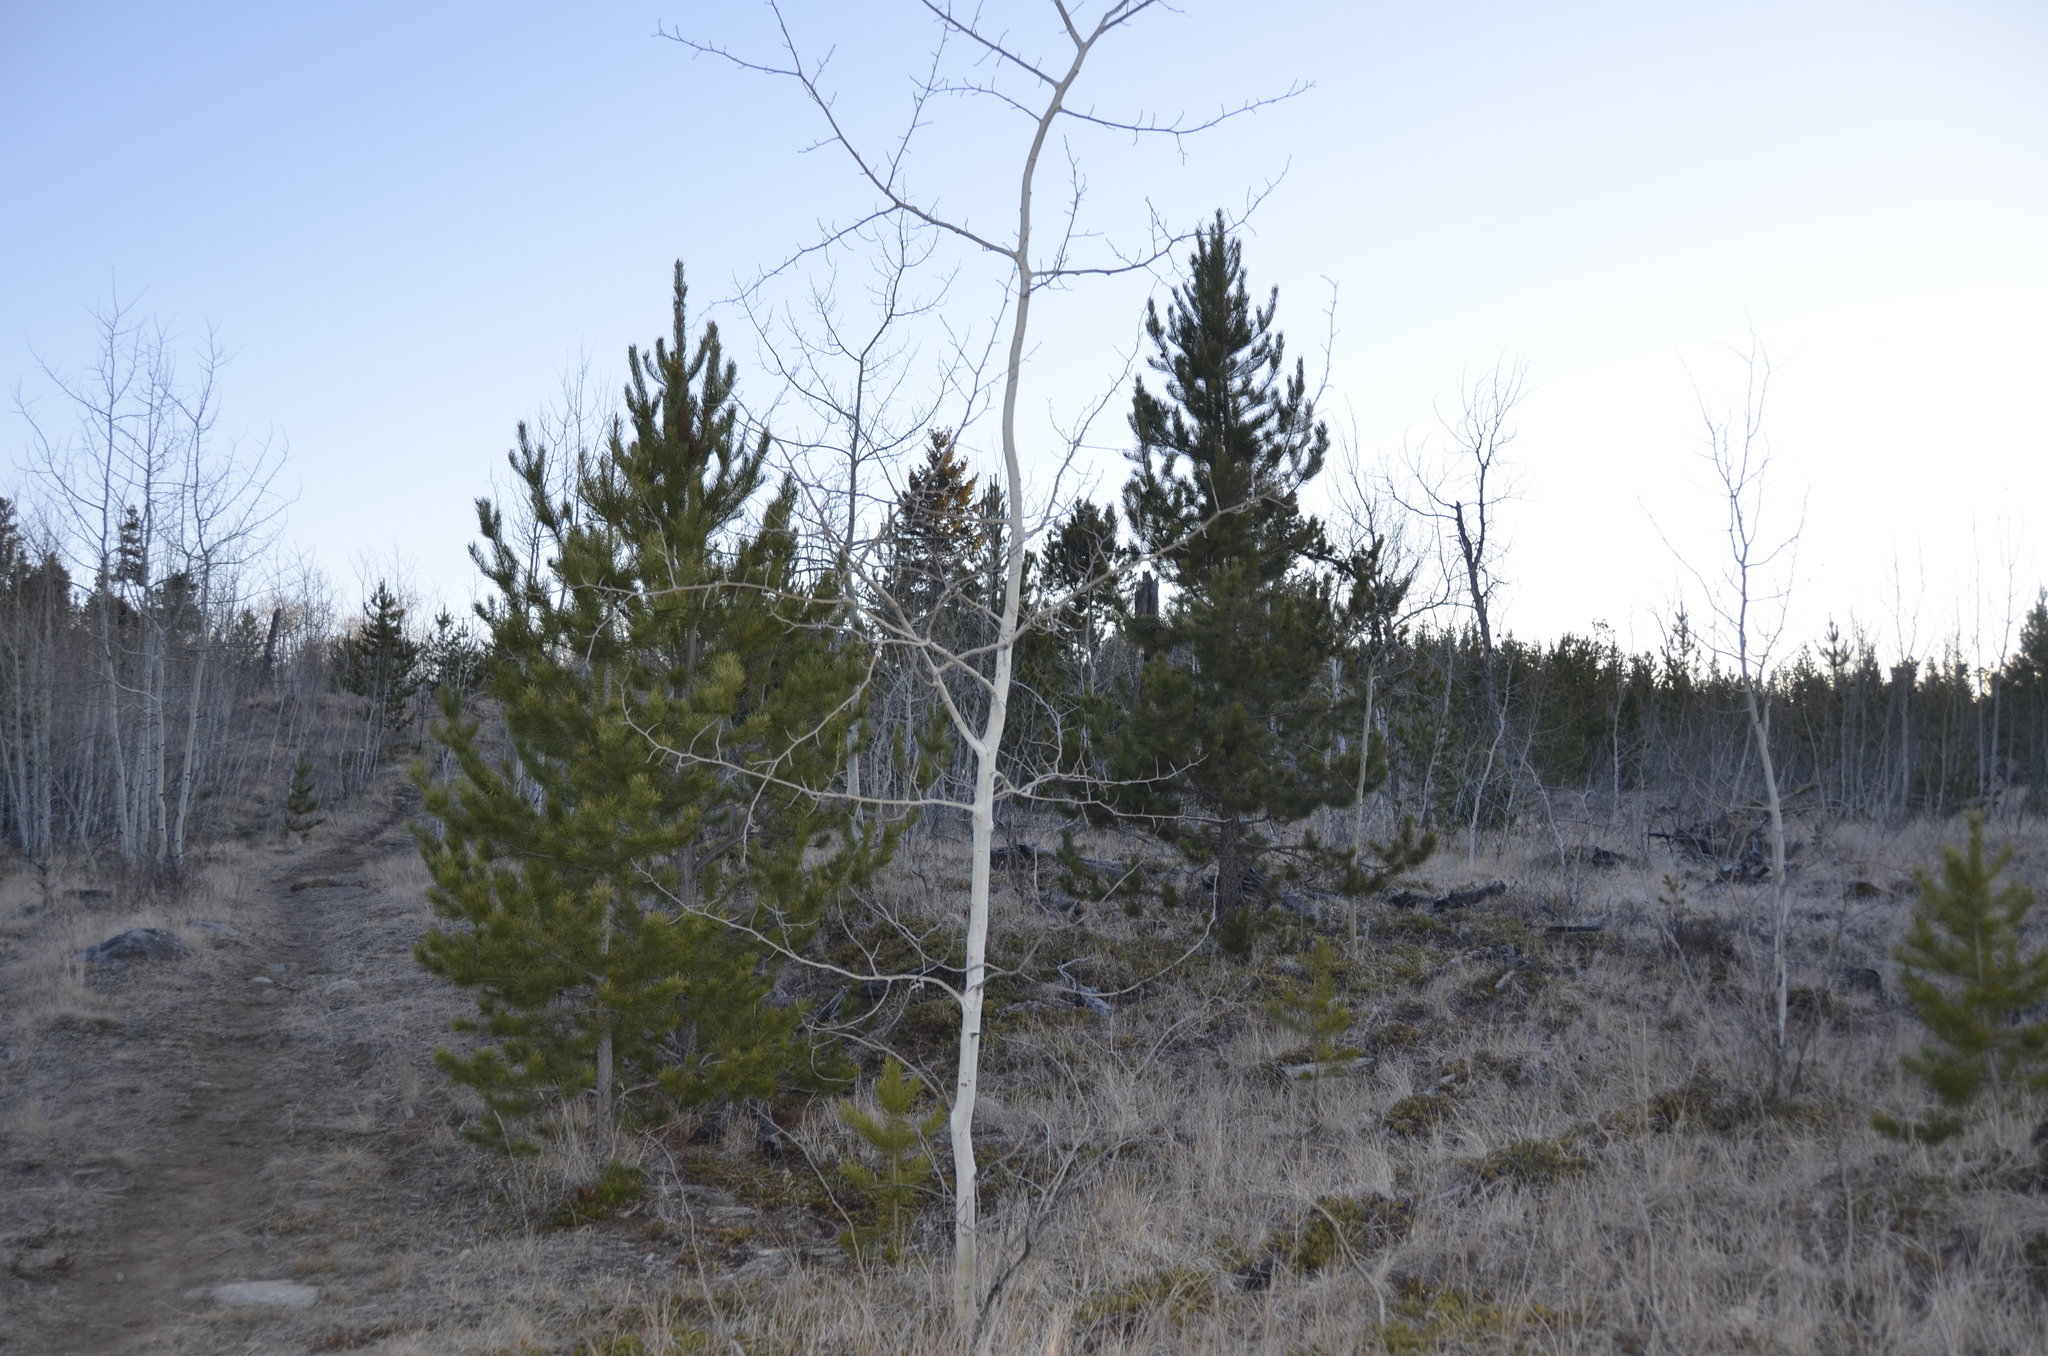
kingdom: Plantae
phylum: Tracheophyta
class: Magnoliopsida
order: Malpighiales
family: Salicaceae
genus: Populus
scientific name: Populus tremuloides
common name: Quaking aspen
